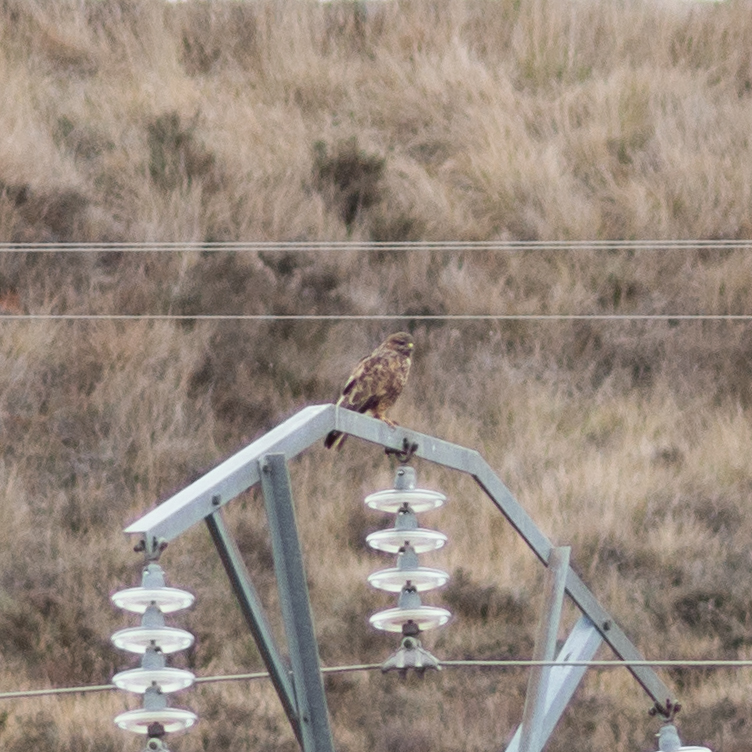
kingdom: Animalia
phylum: Chordata
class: Aves
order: Accipitriformes
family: Accipitridae
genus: Buteo
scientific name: Buteo buteo
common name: Common buzzard
